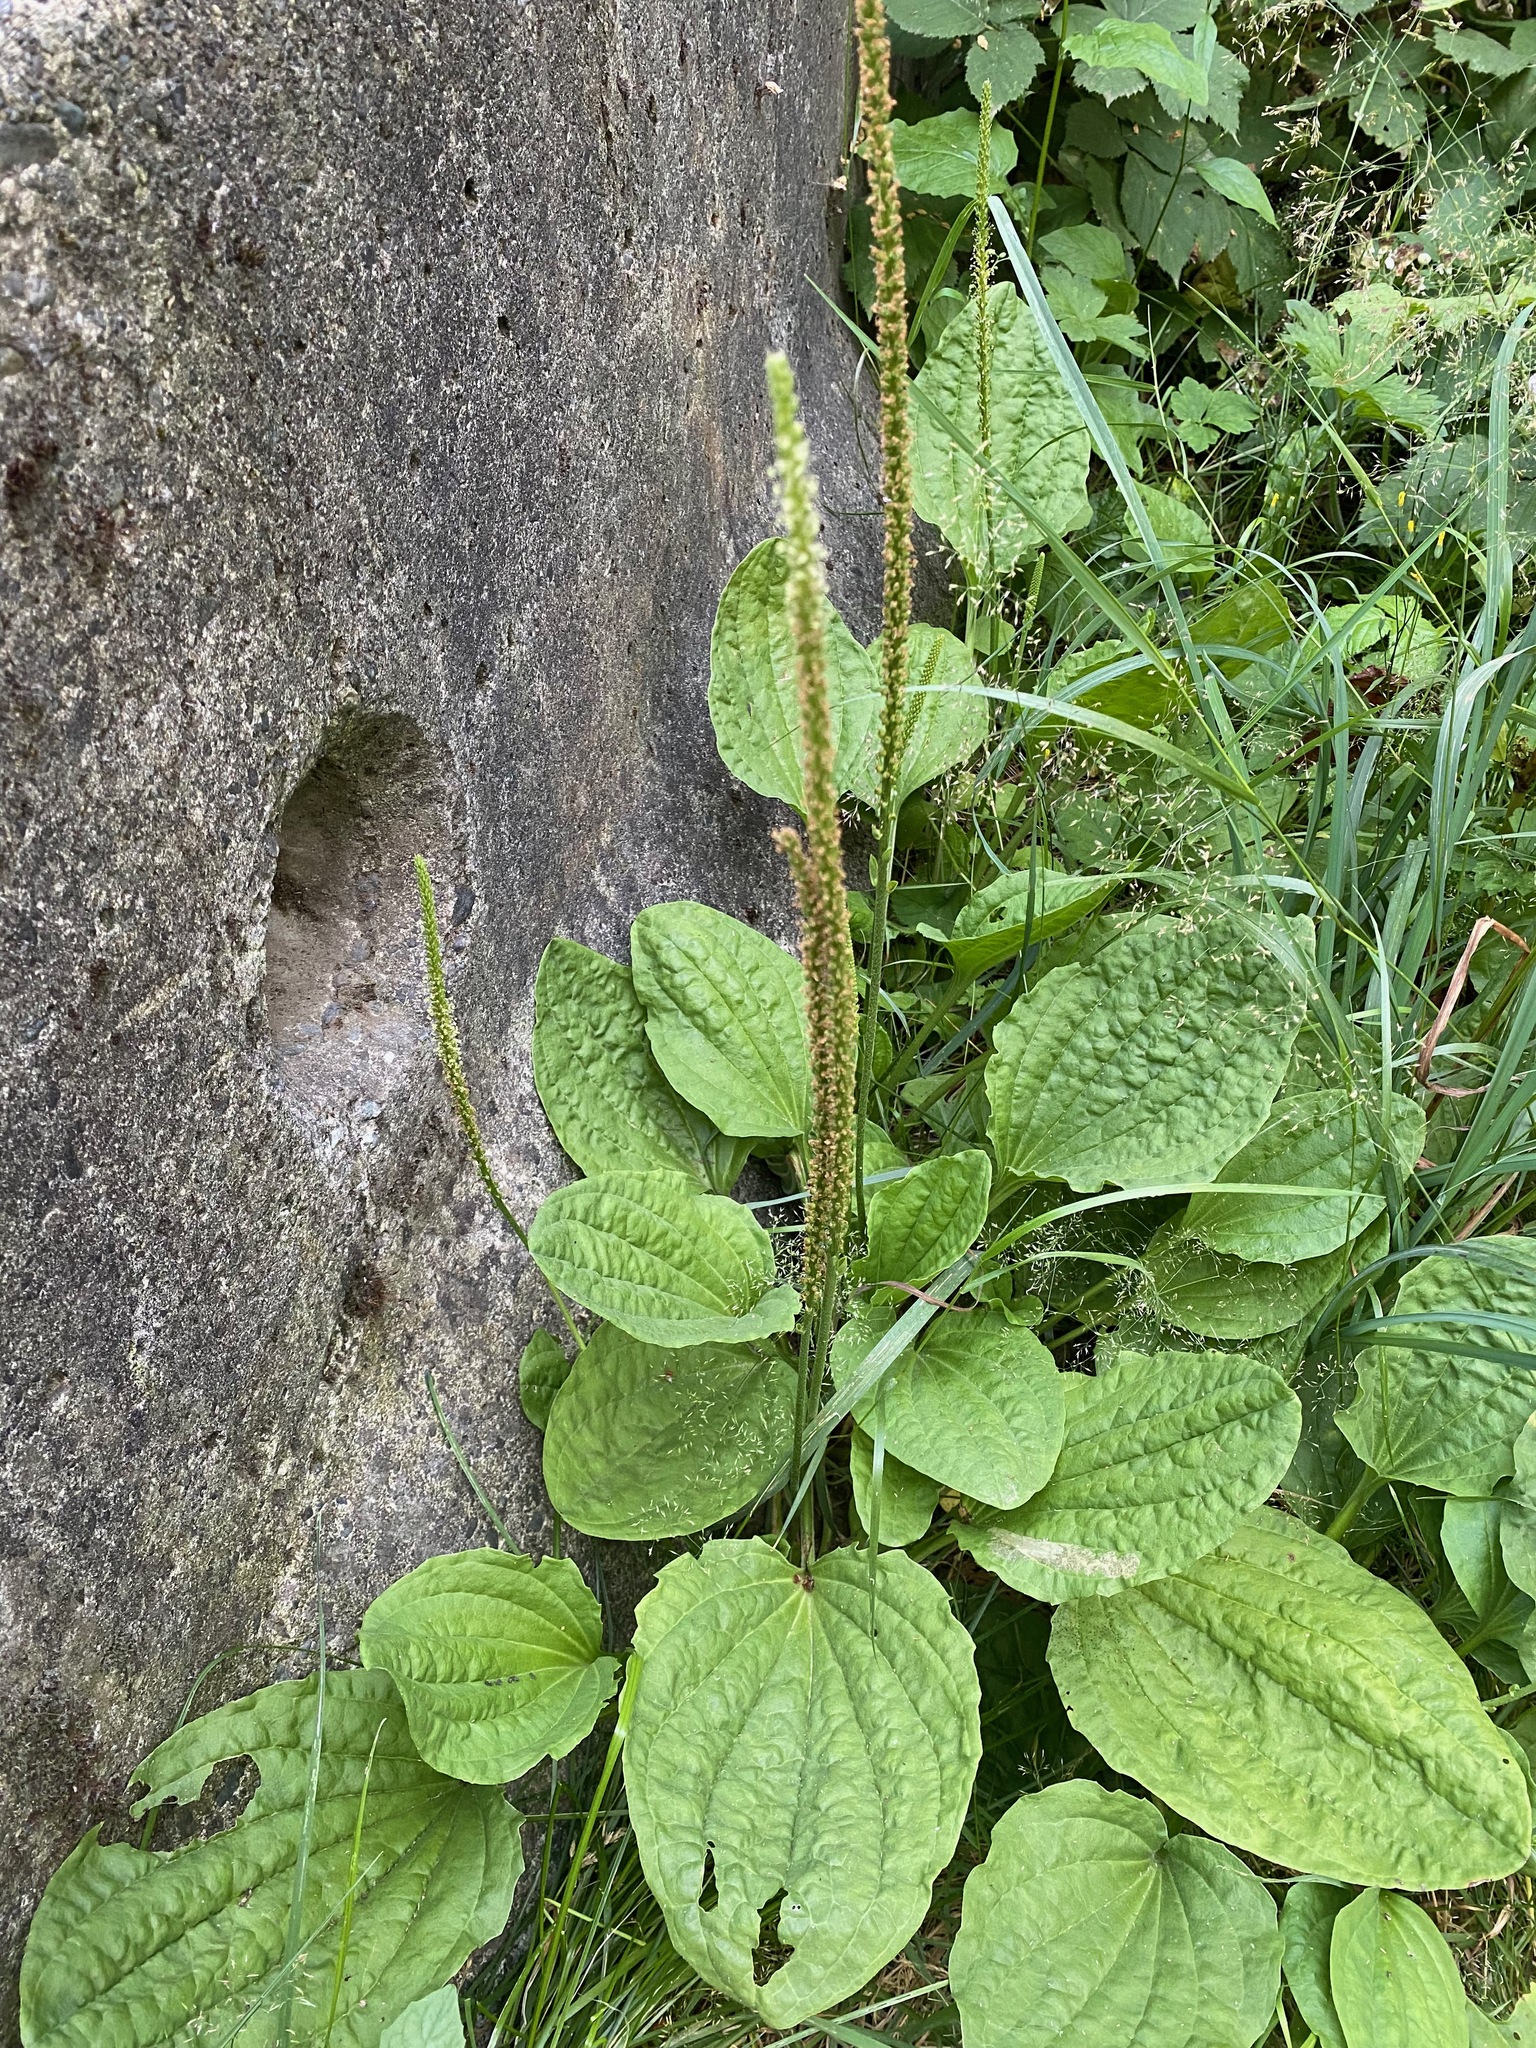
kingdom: Plantae
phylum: Tracheophyta
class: Magnoliopsida
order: Lamiales
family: Plantaginaceae
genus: Plantago
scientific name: Plantago major
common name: Common plantain
